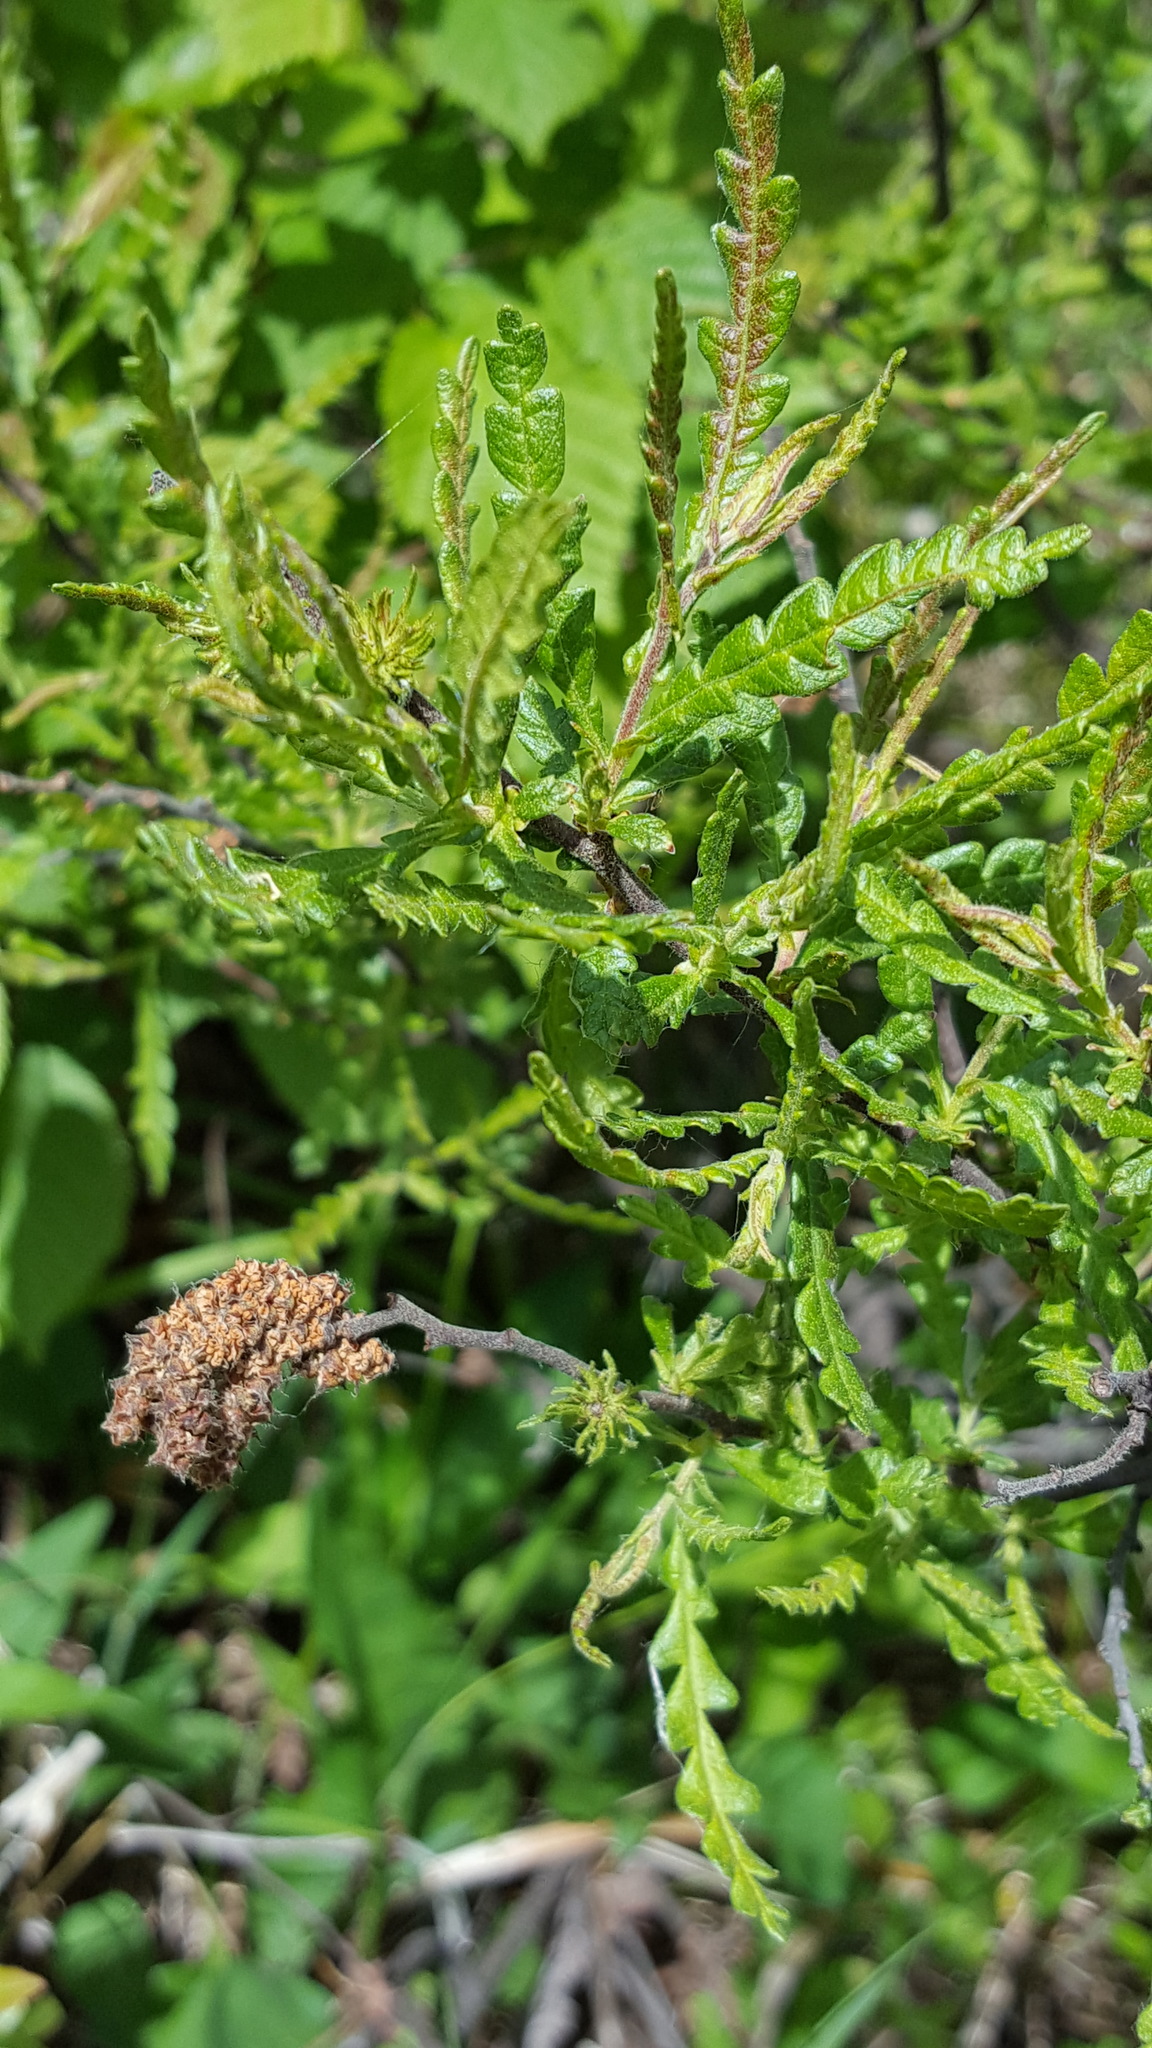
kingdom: Plantae
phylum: Tracheophyta
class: Magnoliopsida
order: Fagales
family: Myricaceae
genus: Comptonia
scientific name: Comptonia peregrina
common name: Sweet-fern
